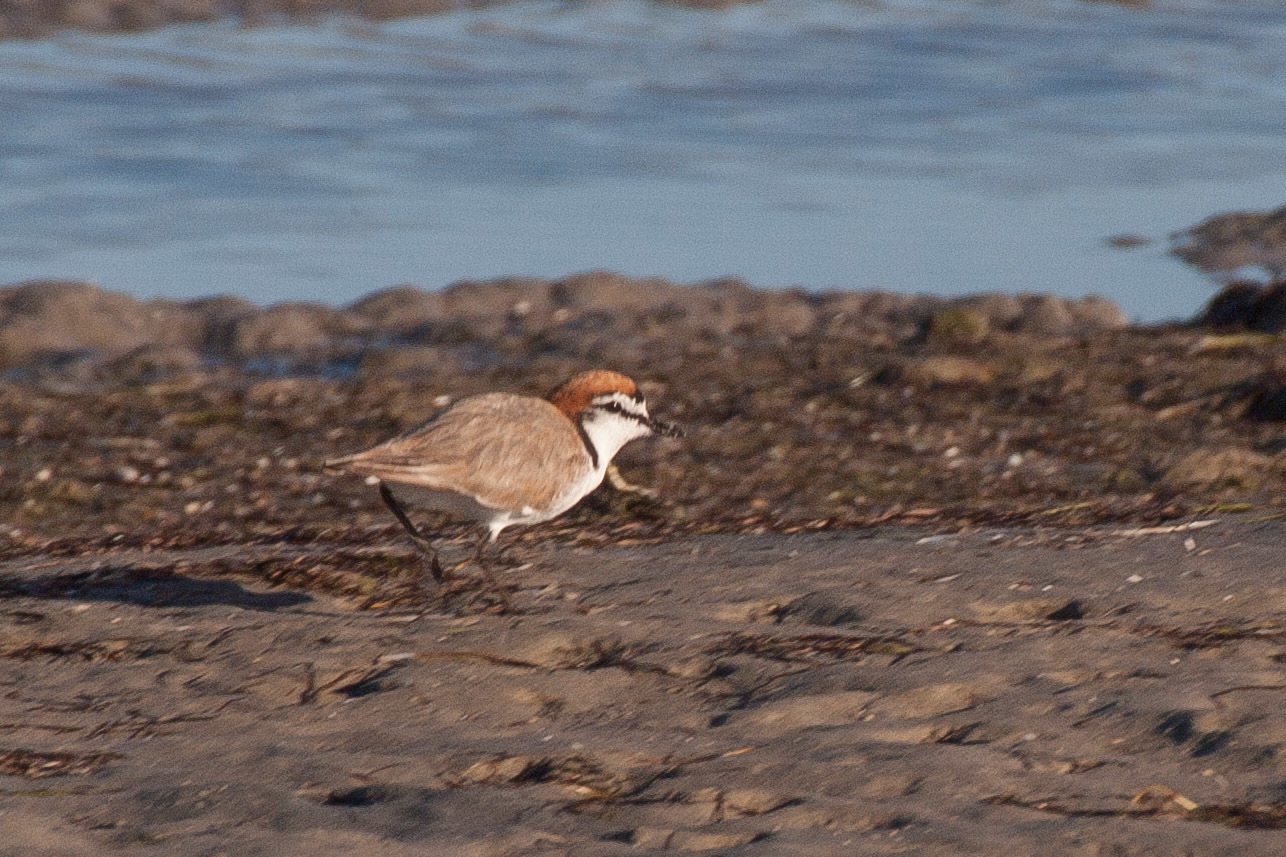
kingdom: Animalia
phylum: Chordata
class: Aves
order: Charadriiformes
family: Charadriidae
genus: Anarhynchus
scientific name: Anarhynchus
